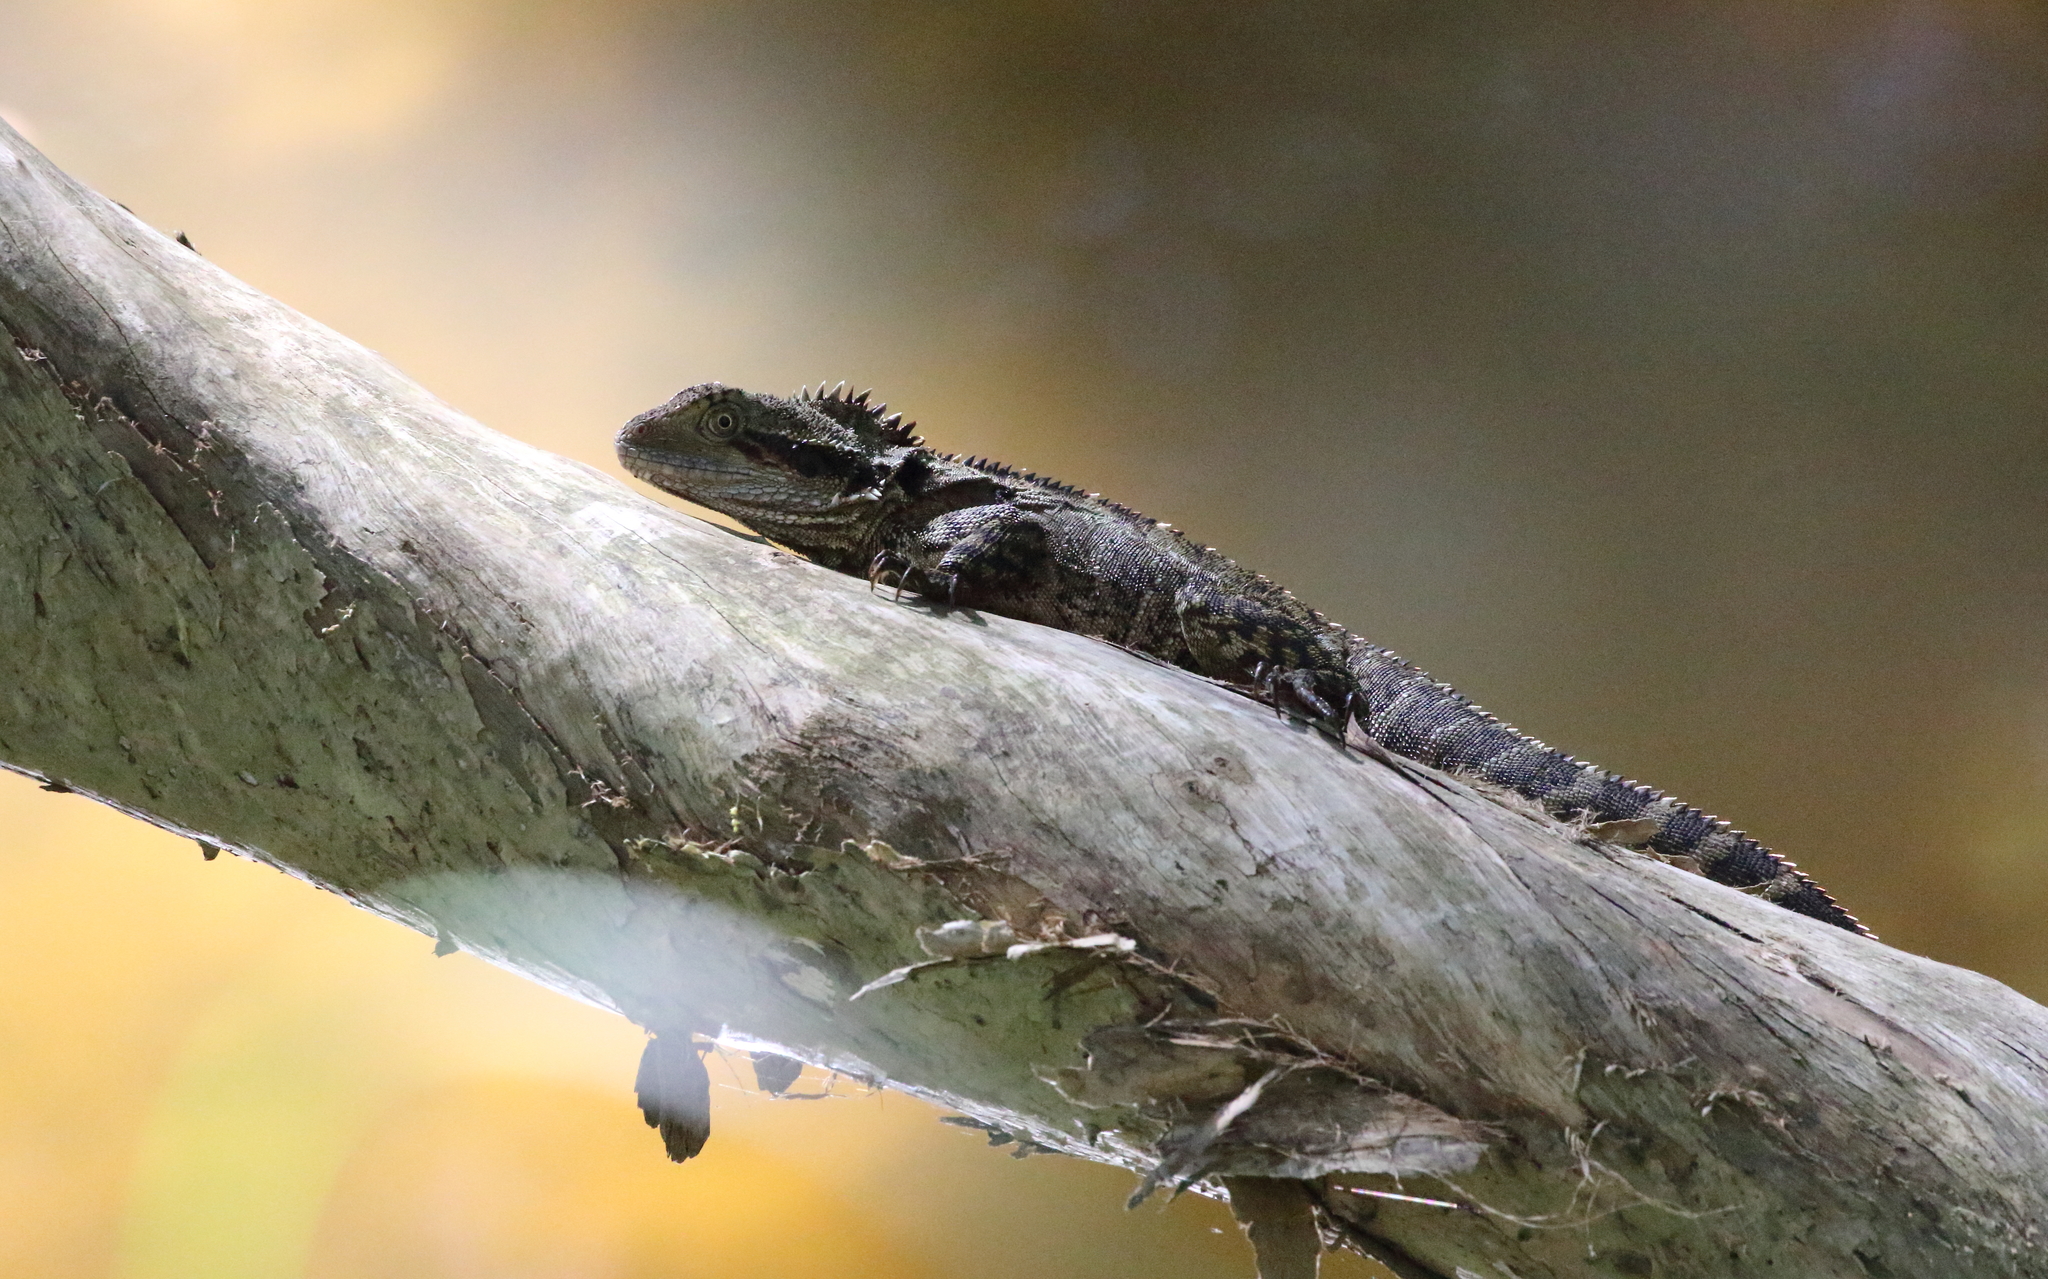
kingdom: Animalia
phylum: Chordata
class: Squamata
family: Agamidae
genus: Intellagama
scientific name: Intellagama lesueurii
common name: Eastern water dragon
